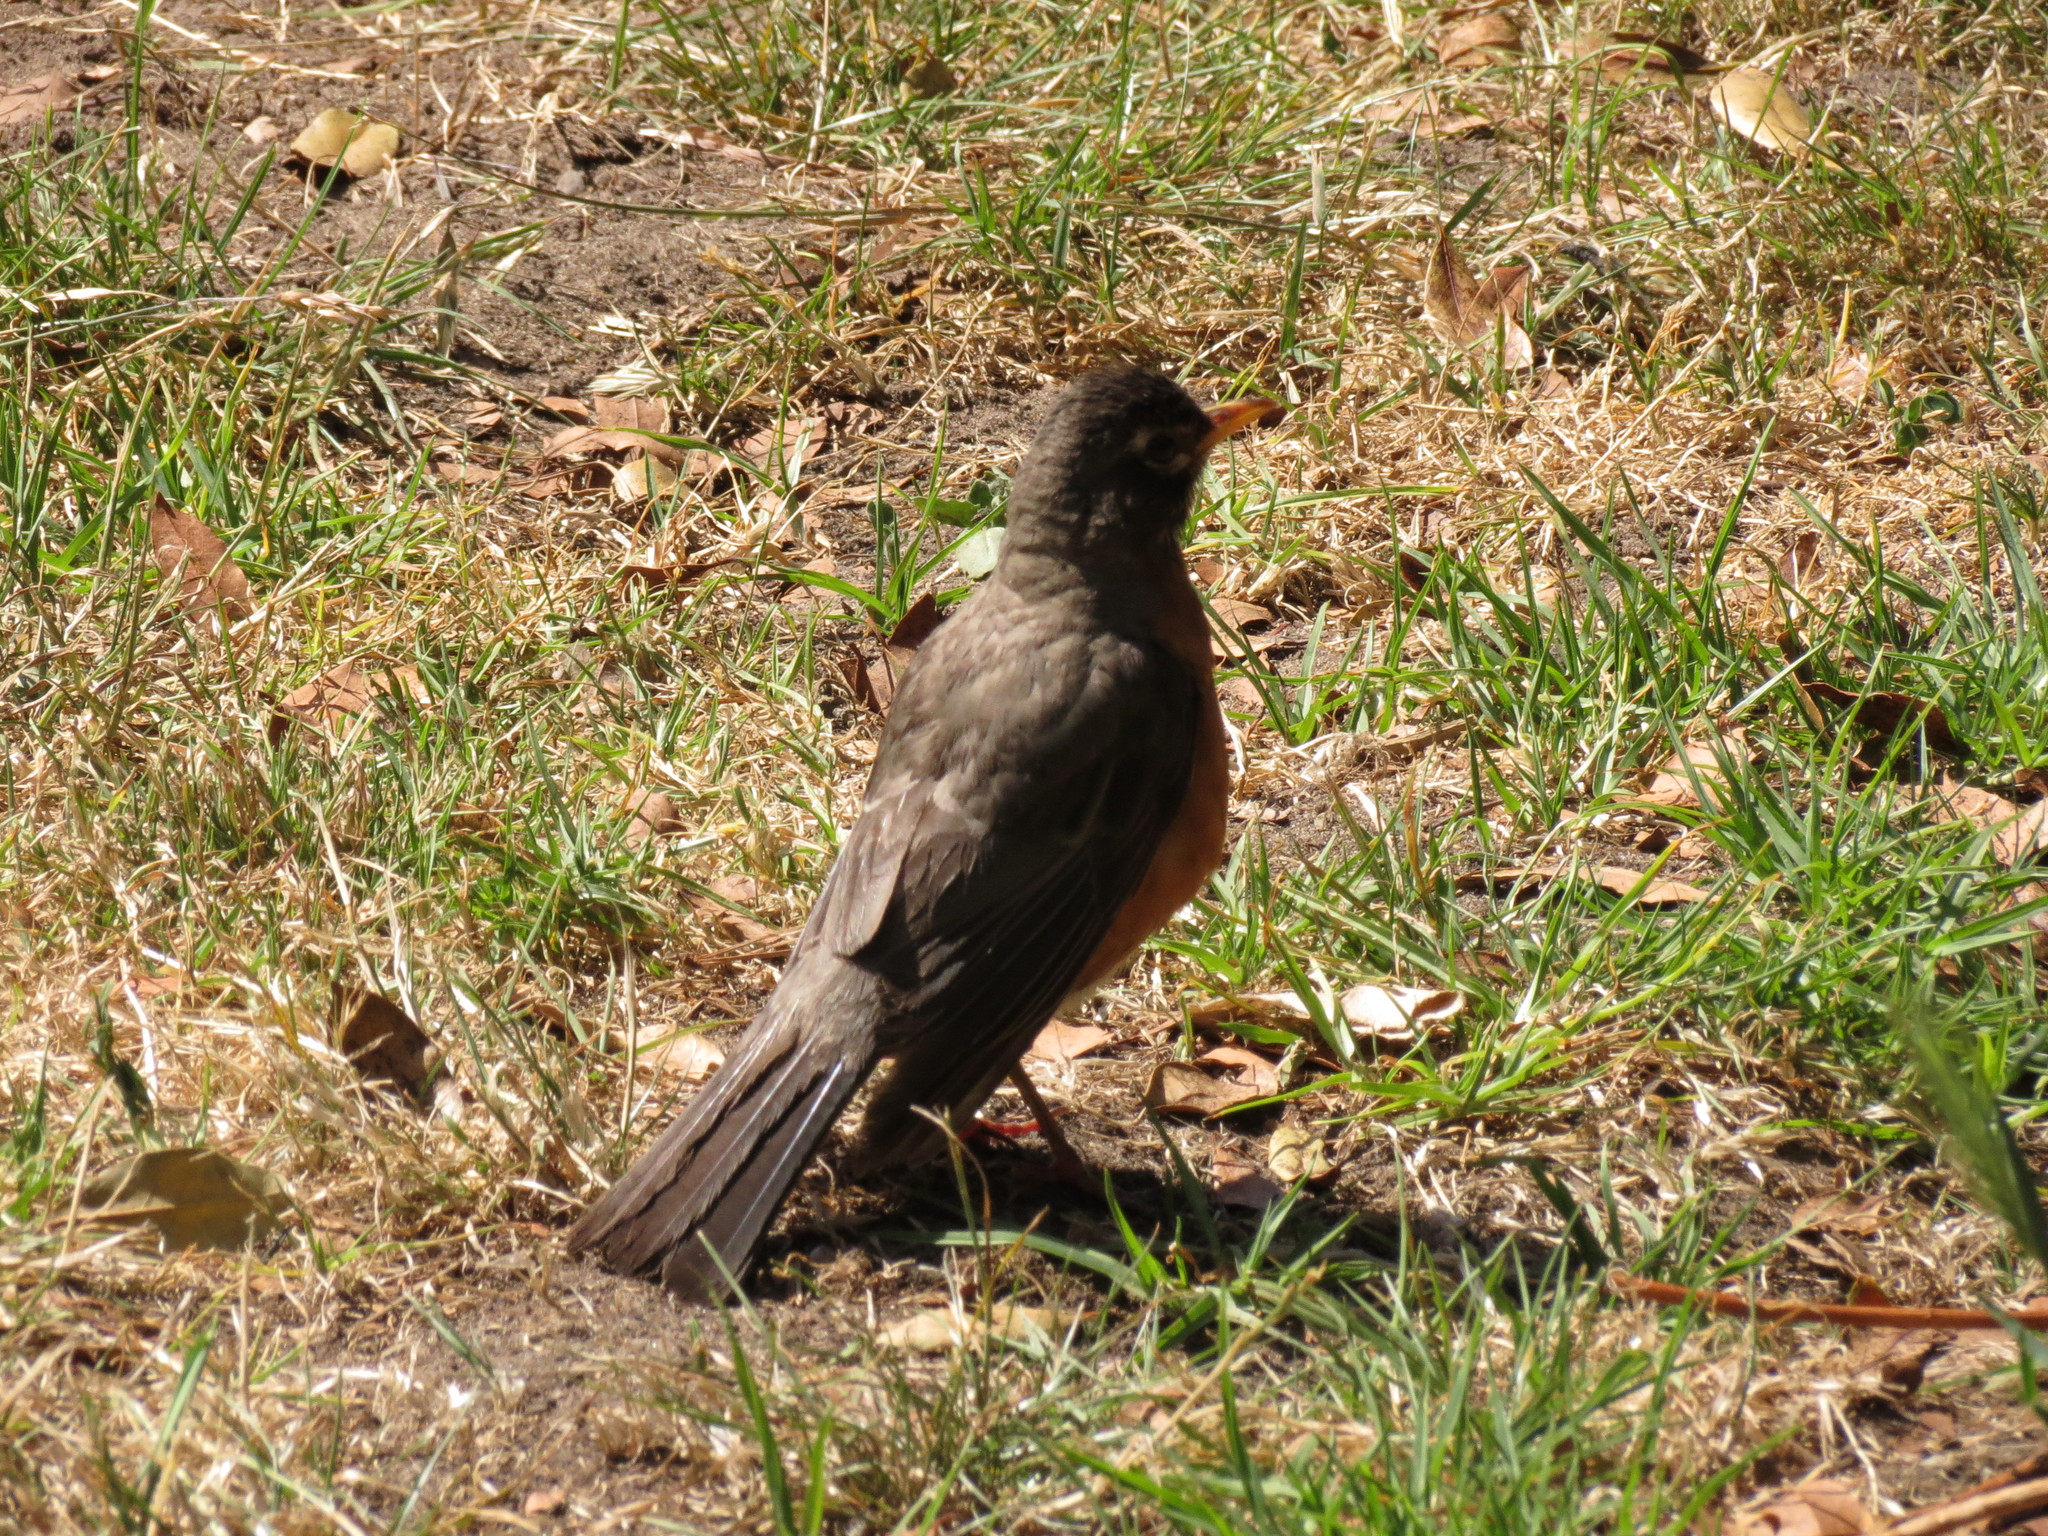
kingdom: Animalia
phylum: Chordata
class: Aves
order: Passeriformes
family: Turdidae
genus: Turdus
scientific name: Turdus migratorius
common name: American robin
